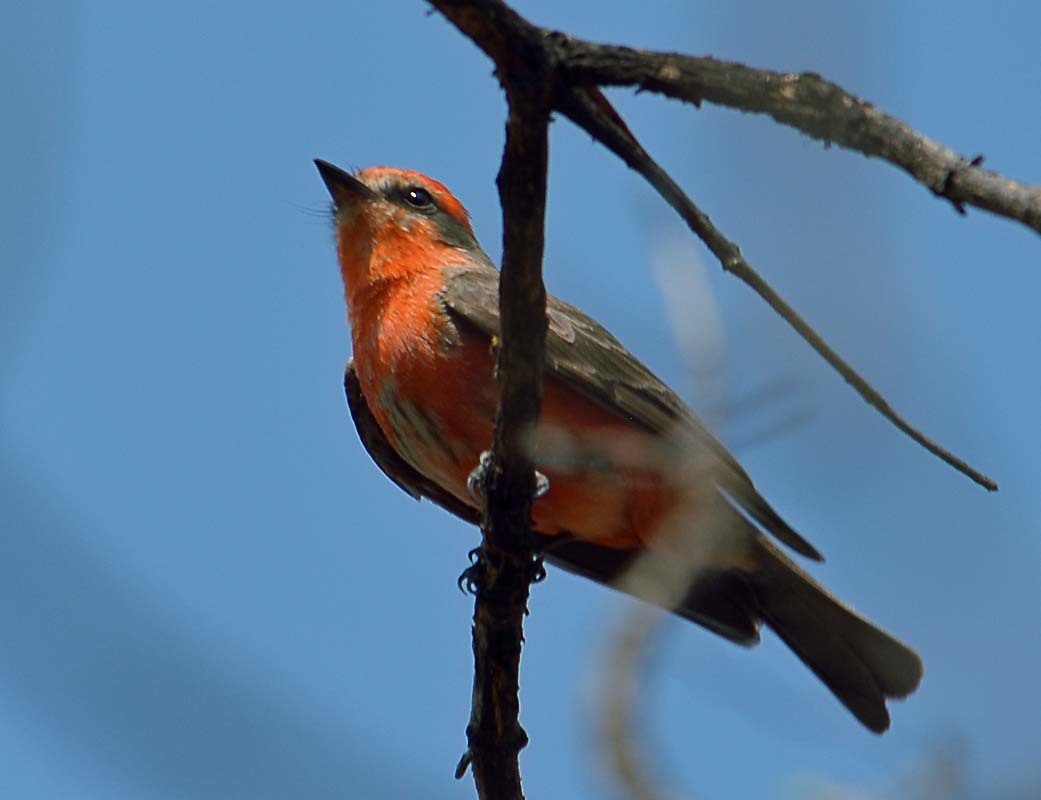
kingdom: Animalia
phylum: Chordata
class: Aves
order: Passeriformes
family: Tyrannidae
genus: Pyrocephalus
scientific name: Pyrocephalus rubinus
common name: Vermilion flycatcher
